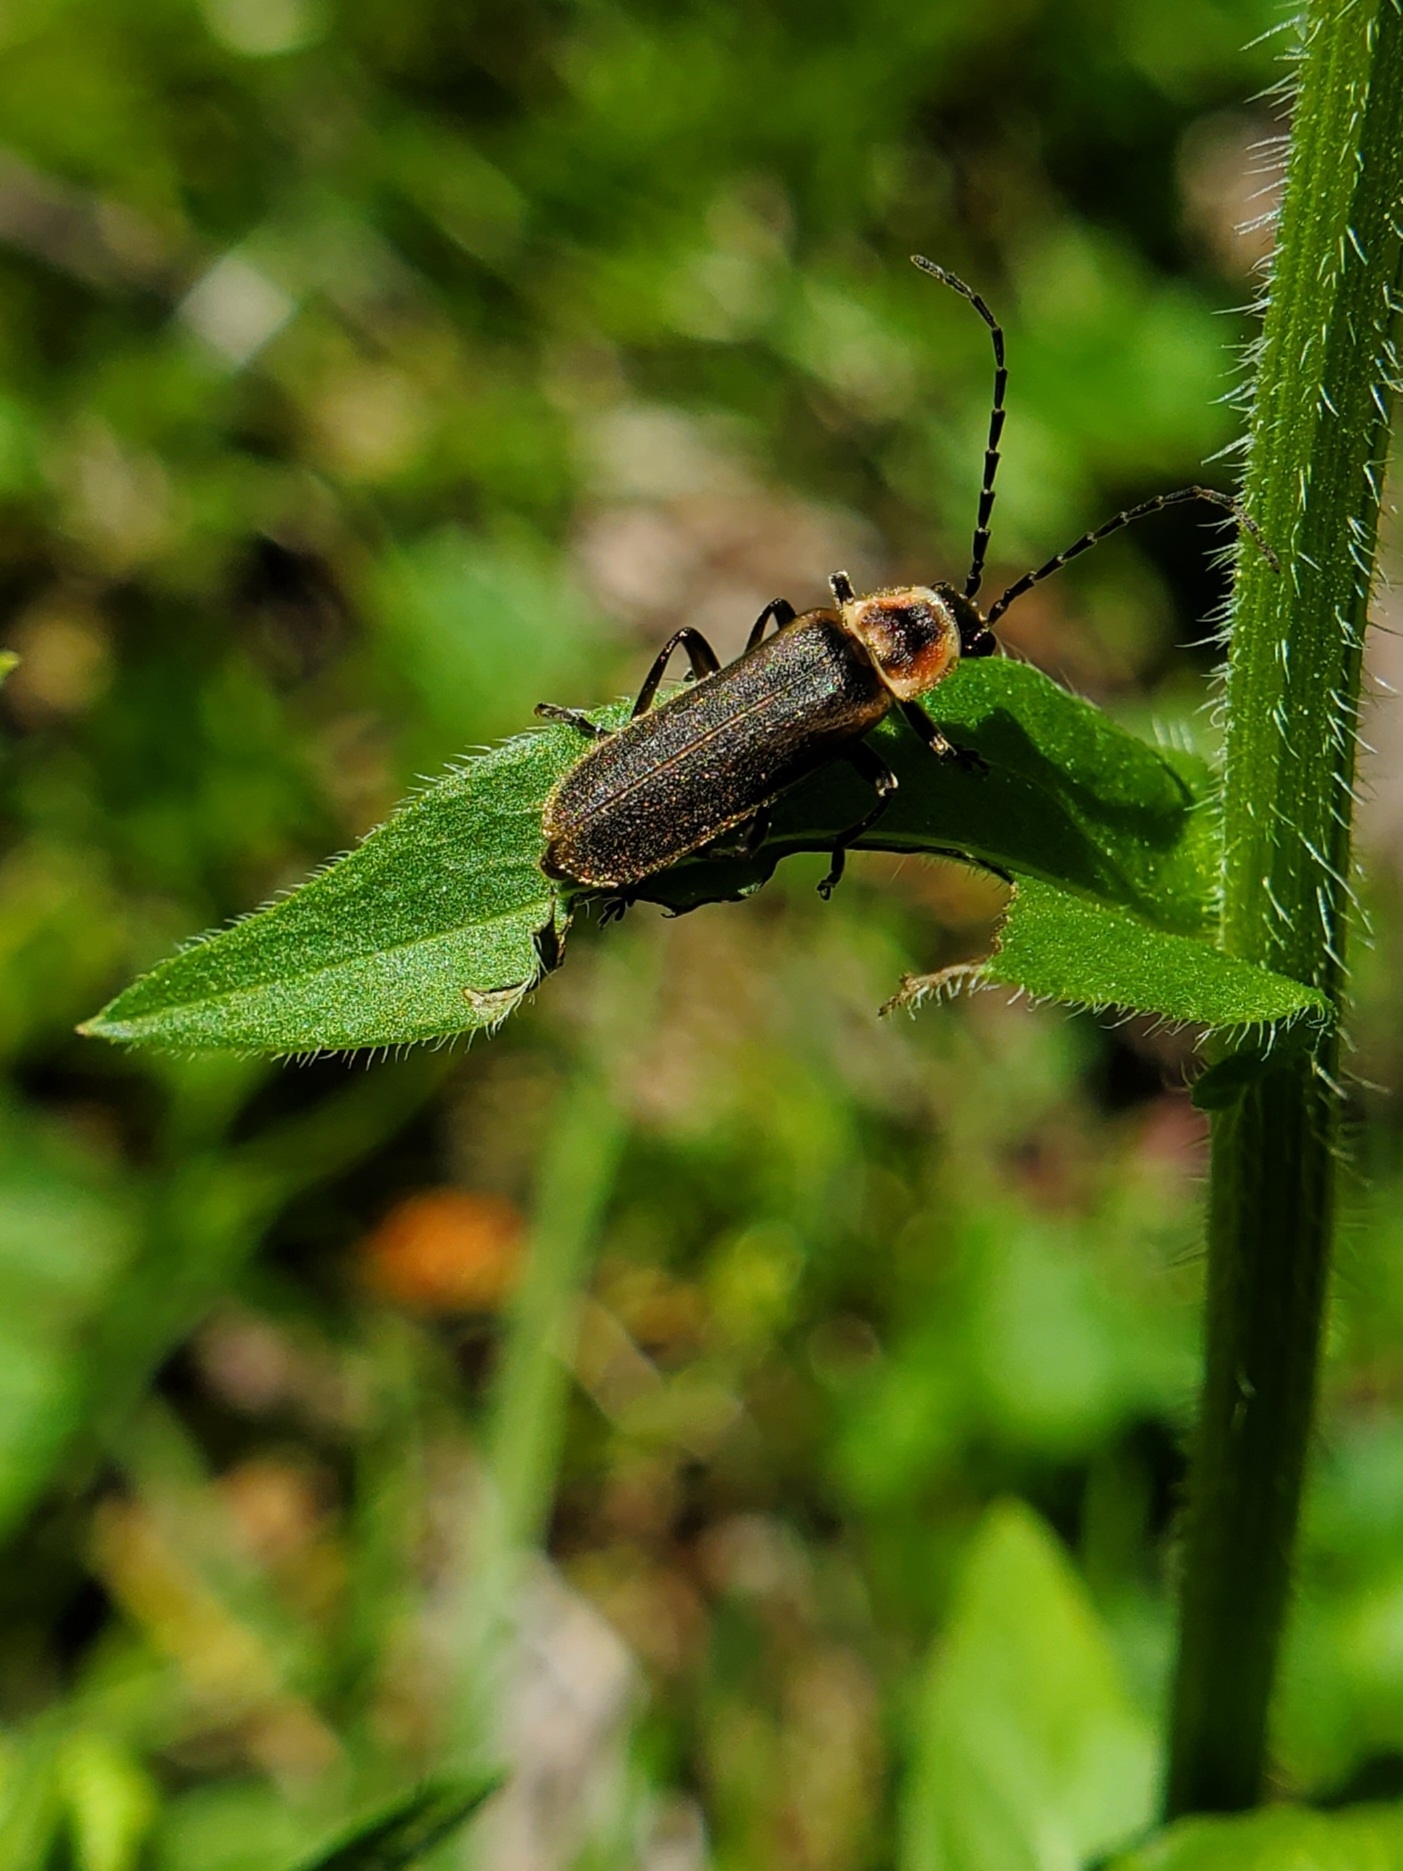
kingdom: Animalia
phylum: Arthropoda
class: Insecta
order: Coleoptera
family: Cantharidae
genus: Atalantycha
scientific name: Atalantycha dentigera
